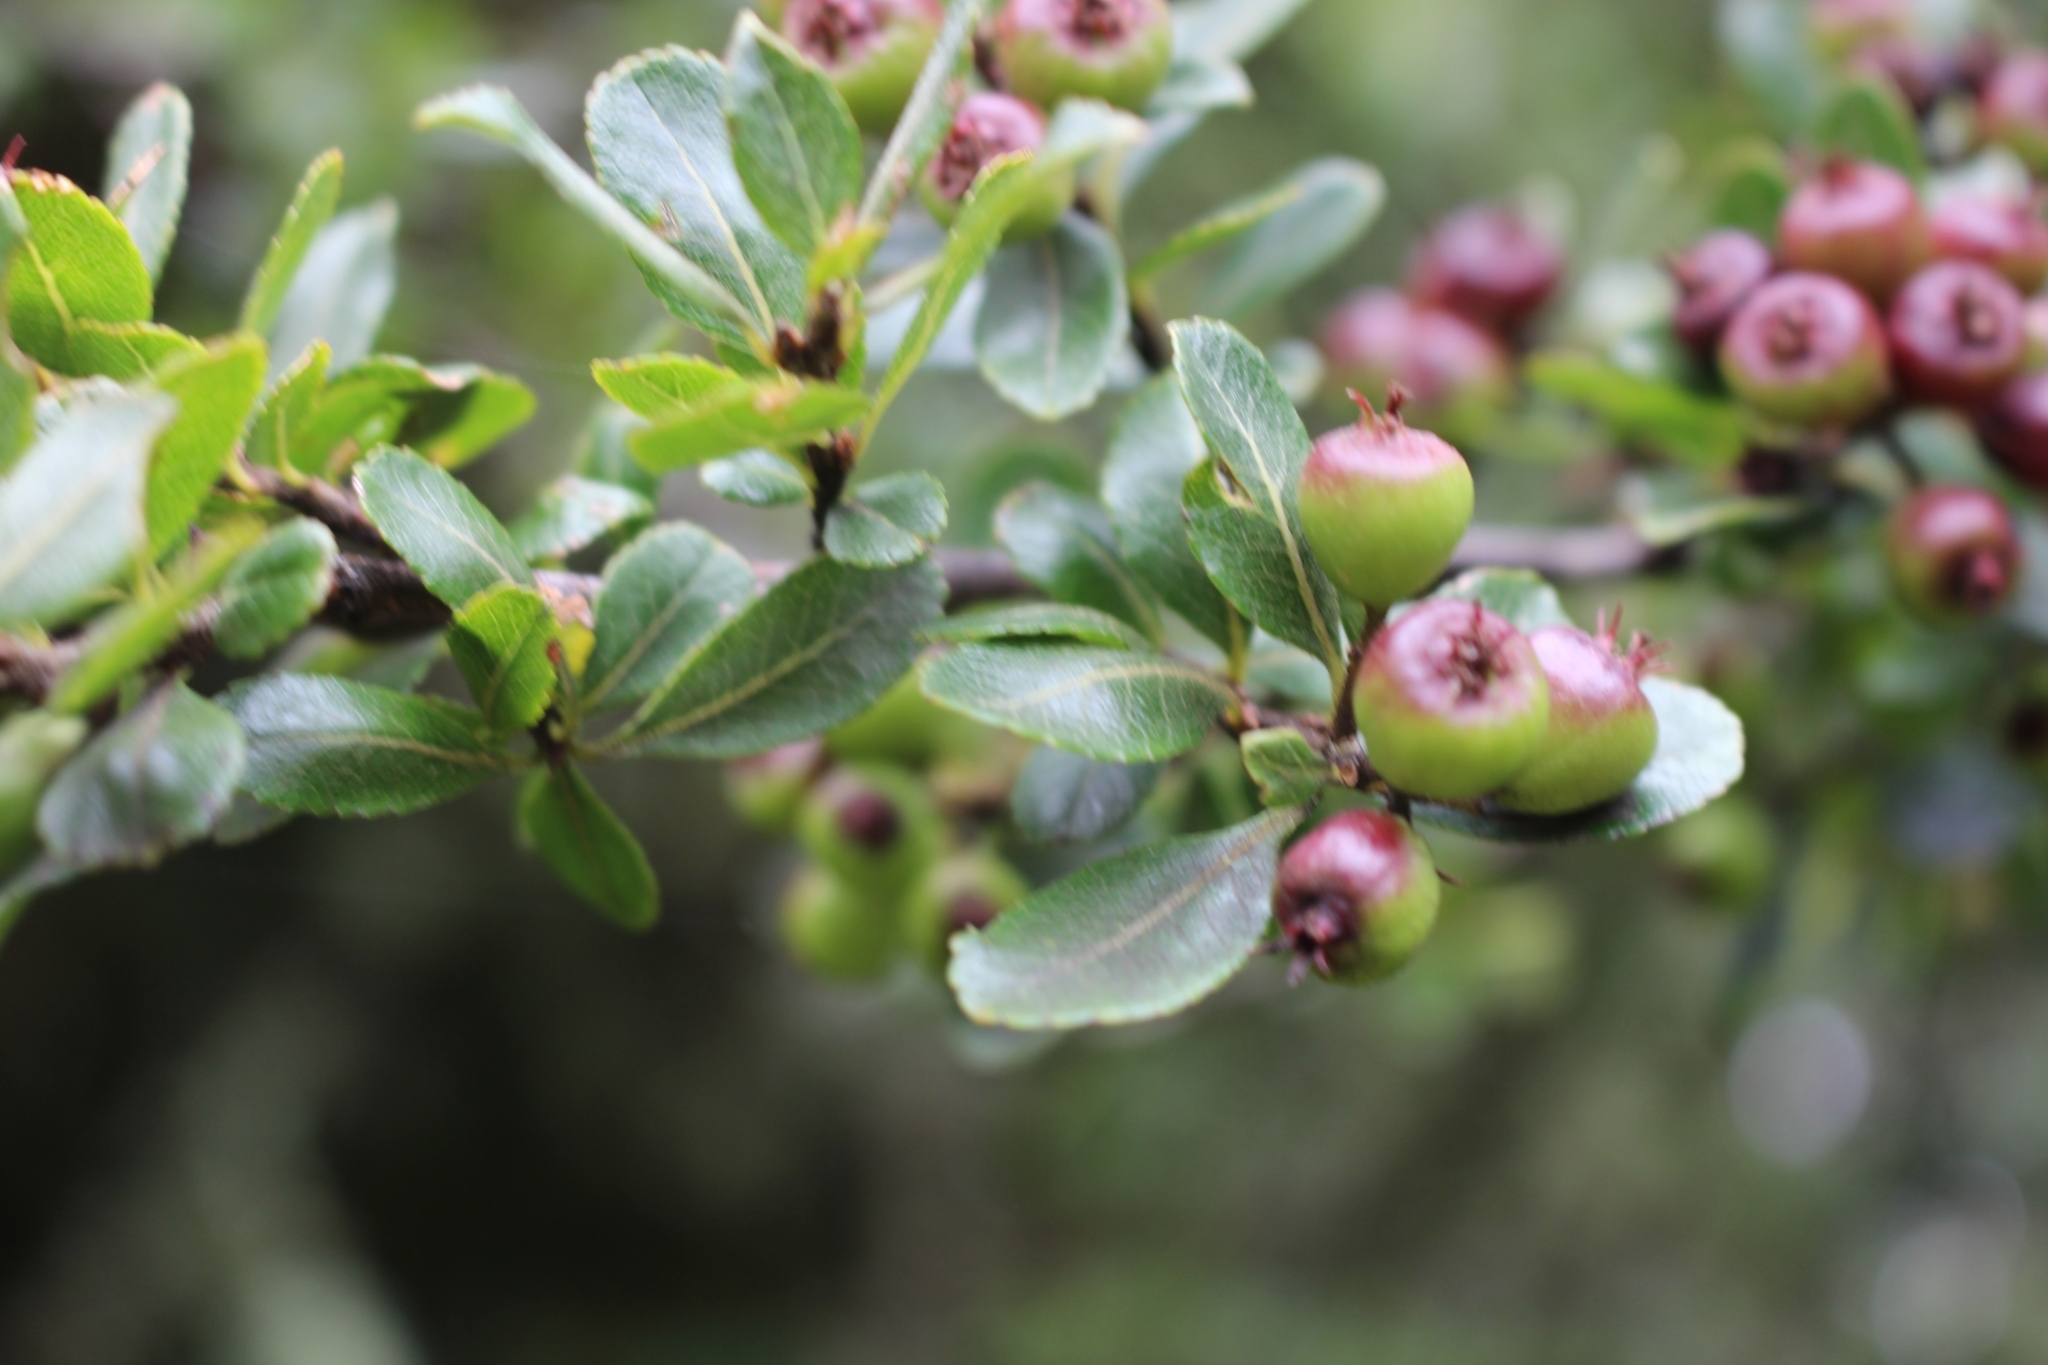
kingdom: Plantae
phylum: Tracheophyta
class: Magnoliopsida
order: Rosales
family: Rosaceae
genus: Hesperomeles
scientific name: Hesperomeles obtusifolia
